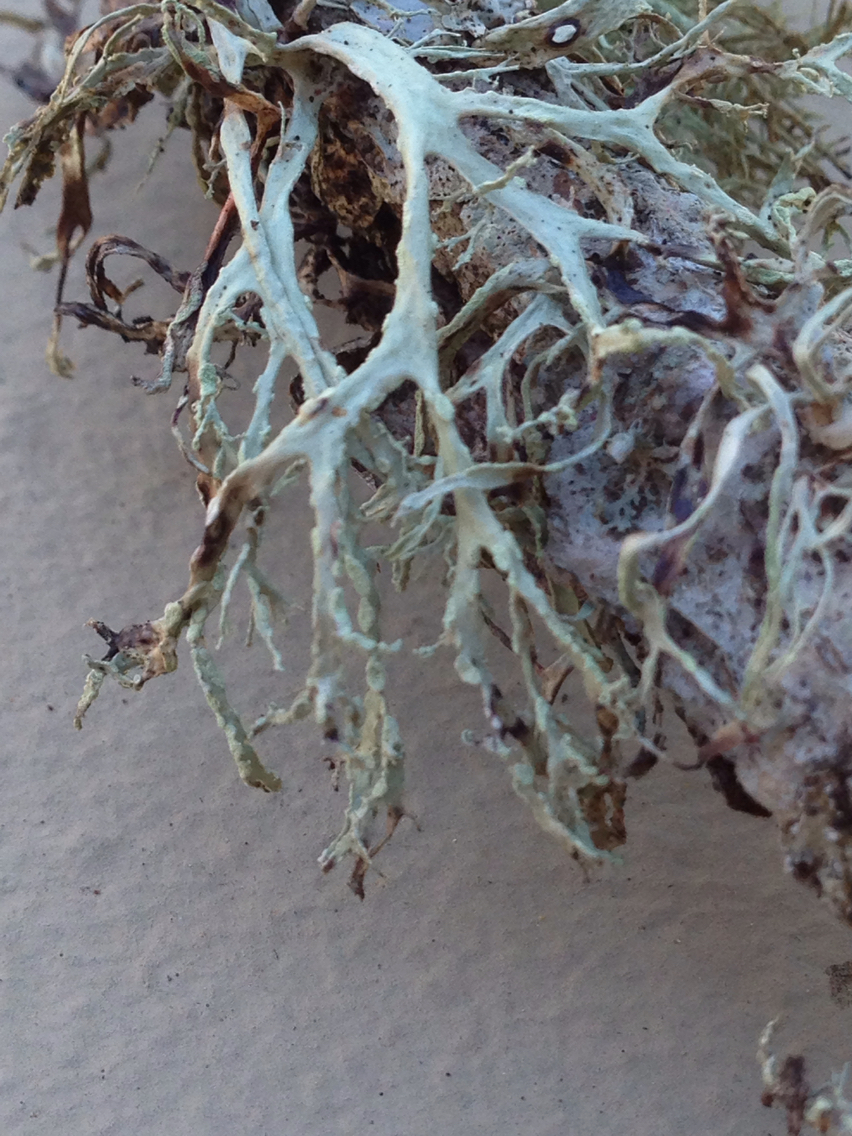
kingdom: Fungi
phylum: Ascomycota
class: Lecanoromycetes
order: Lecanorales
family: Ramalinaceae
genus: Ramalina
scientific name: Ramalina farinacea
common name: Farinose cartilage lichen
